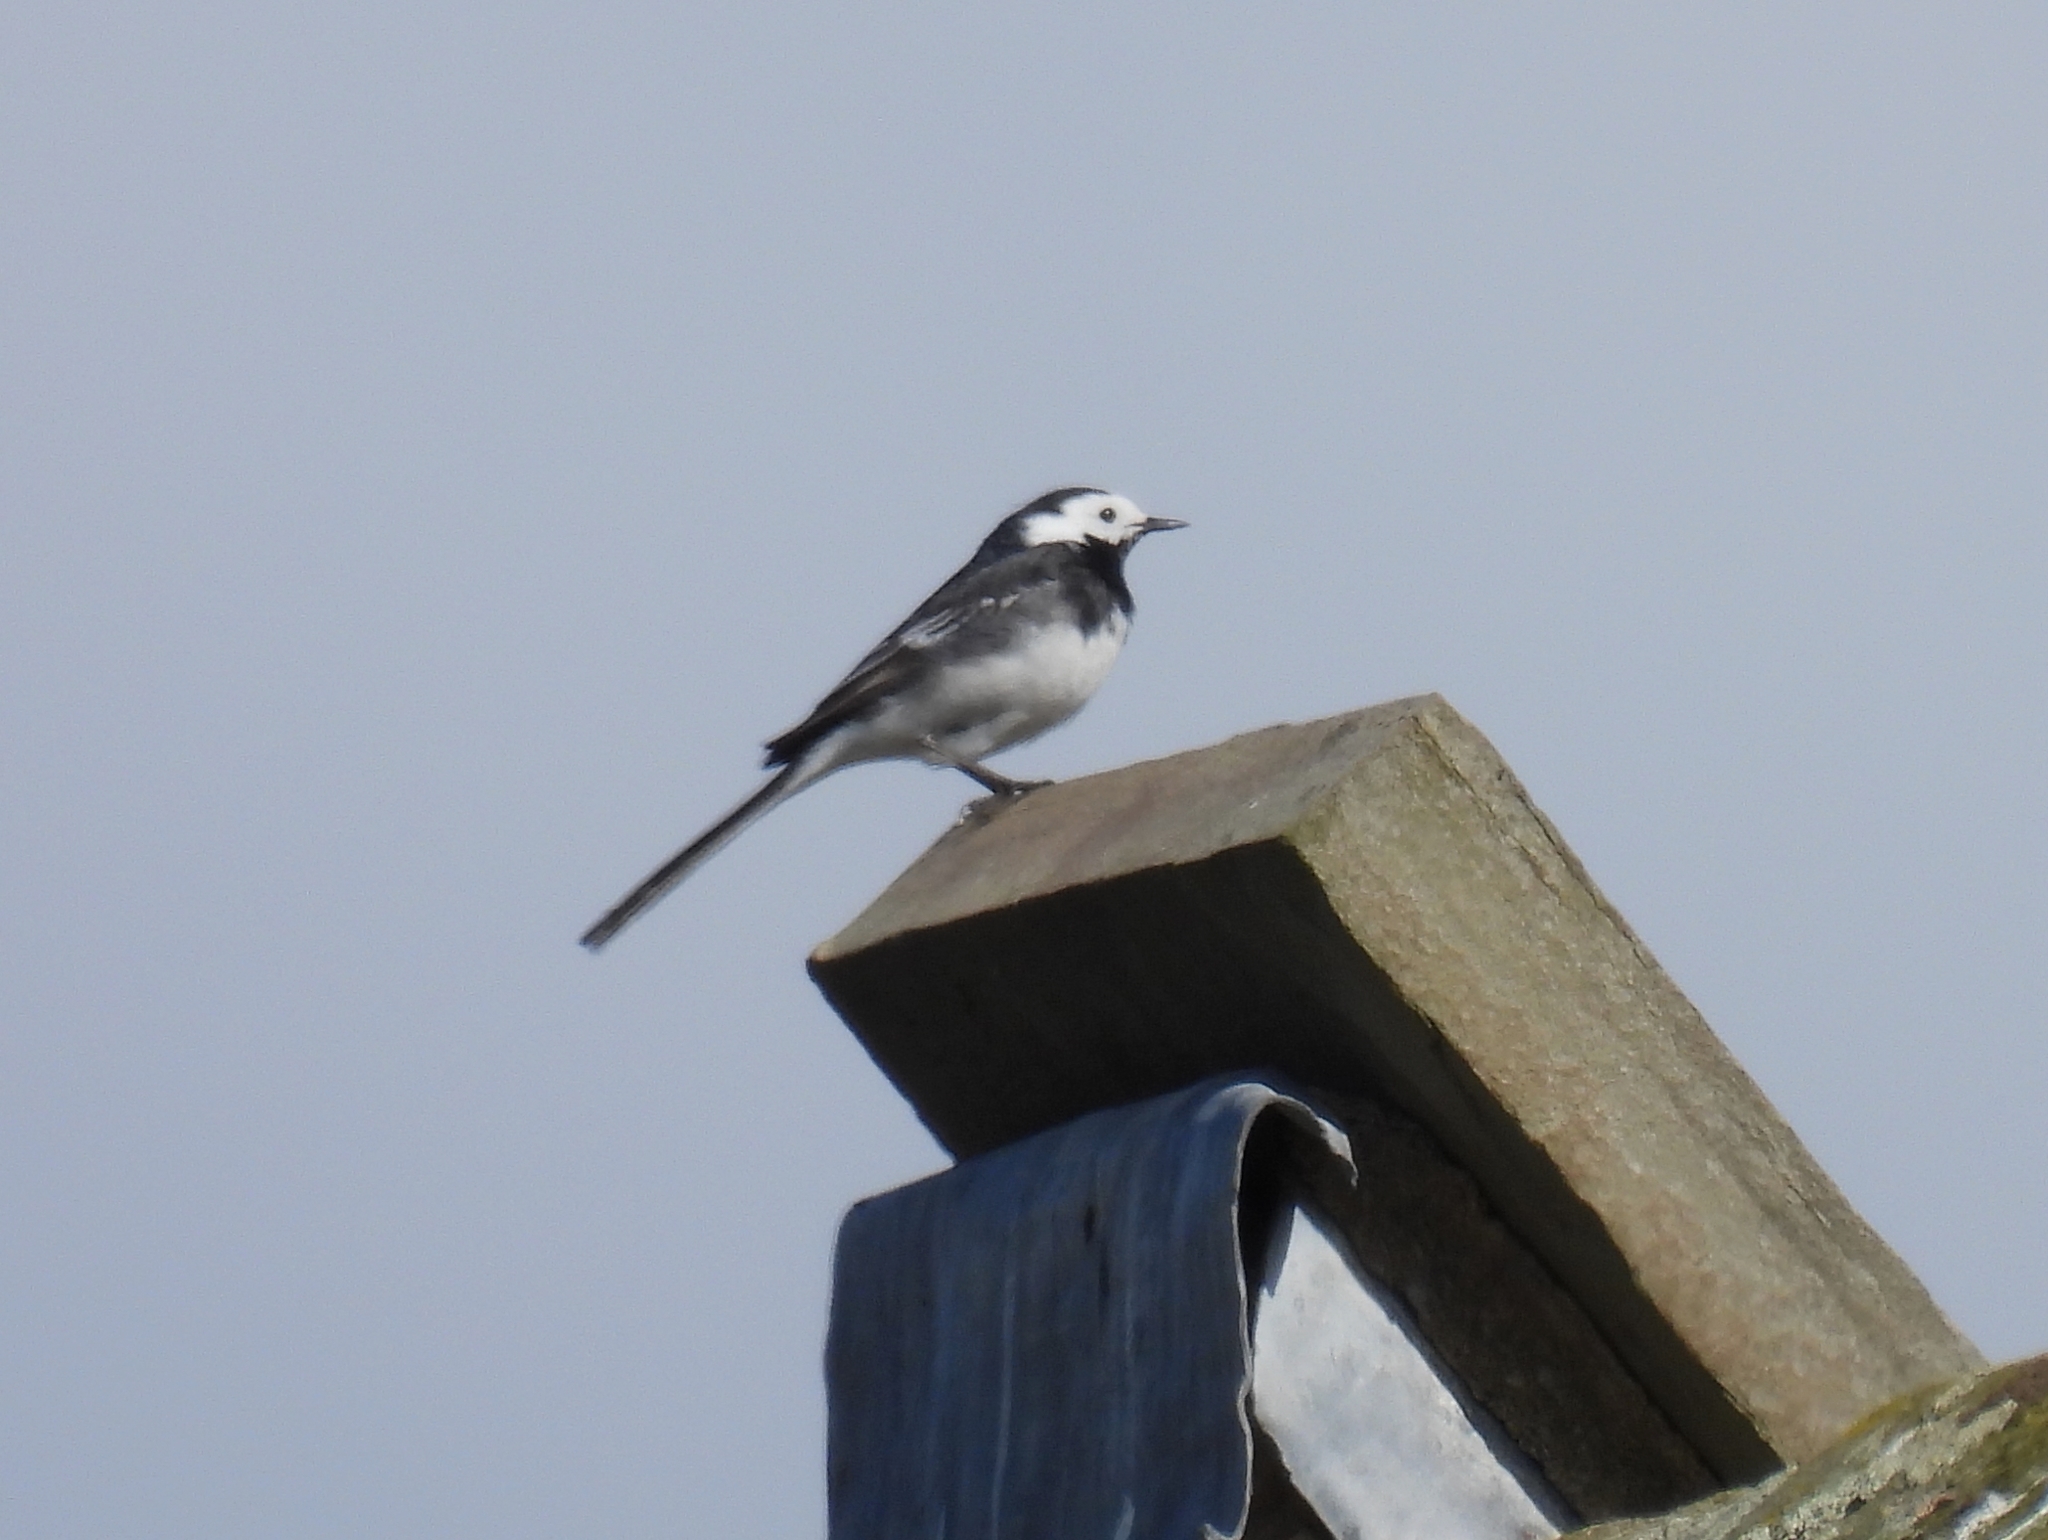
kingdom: Animalia
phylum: Chordata
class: Aves
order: Passeriformes
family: Motacillidae
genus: Motacilla
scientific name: Motacilla alba
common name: White wagtail
